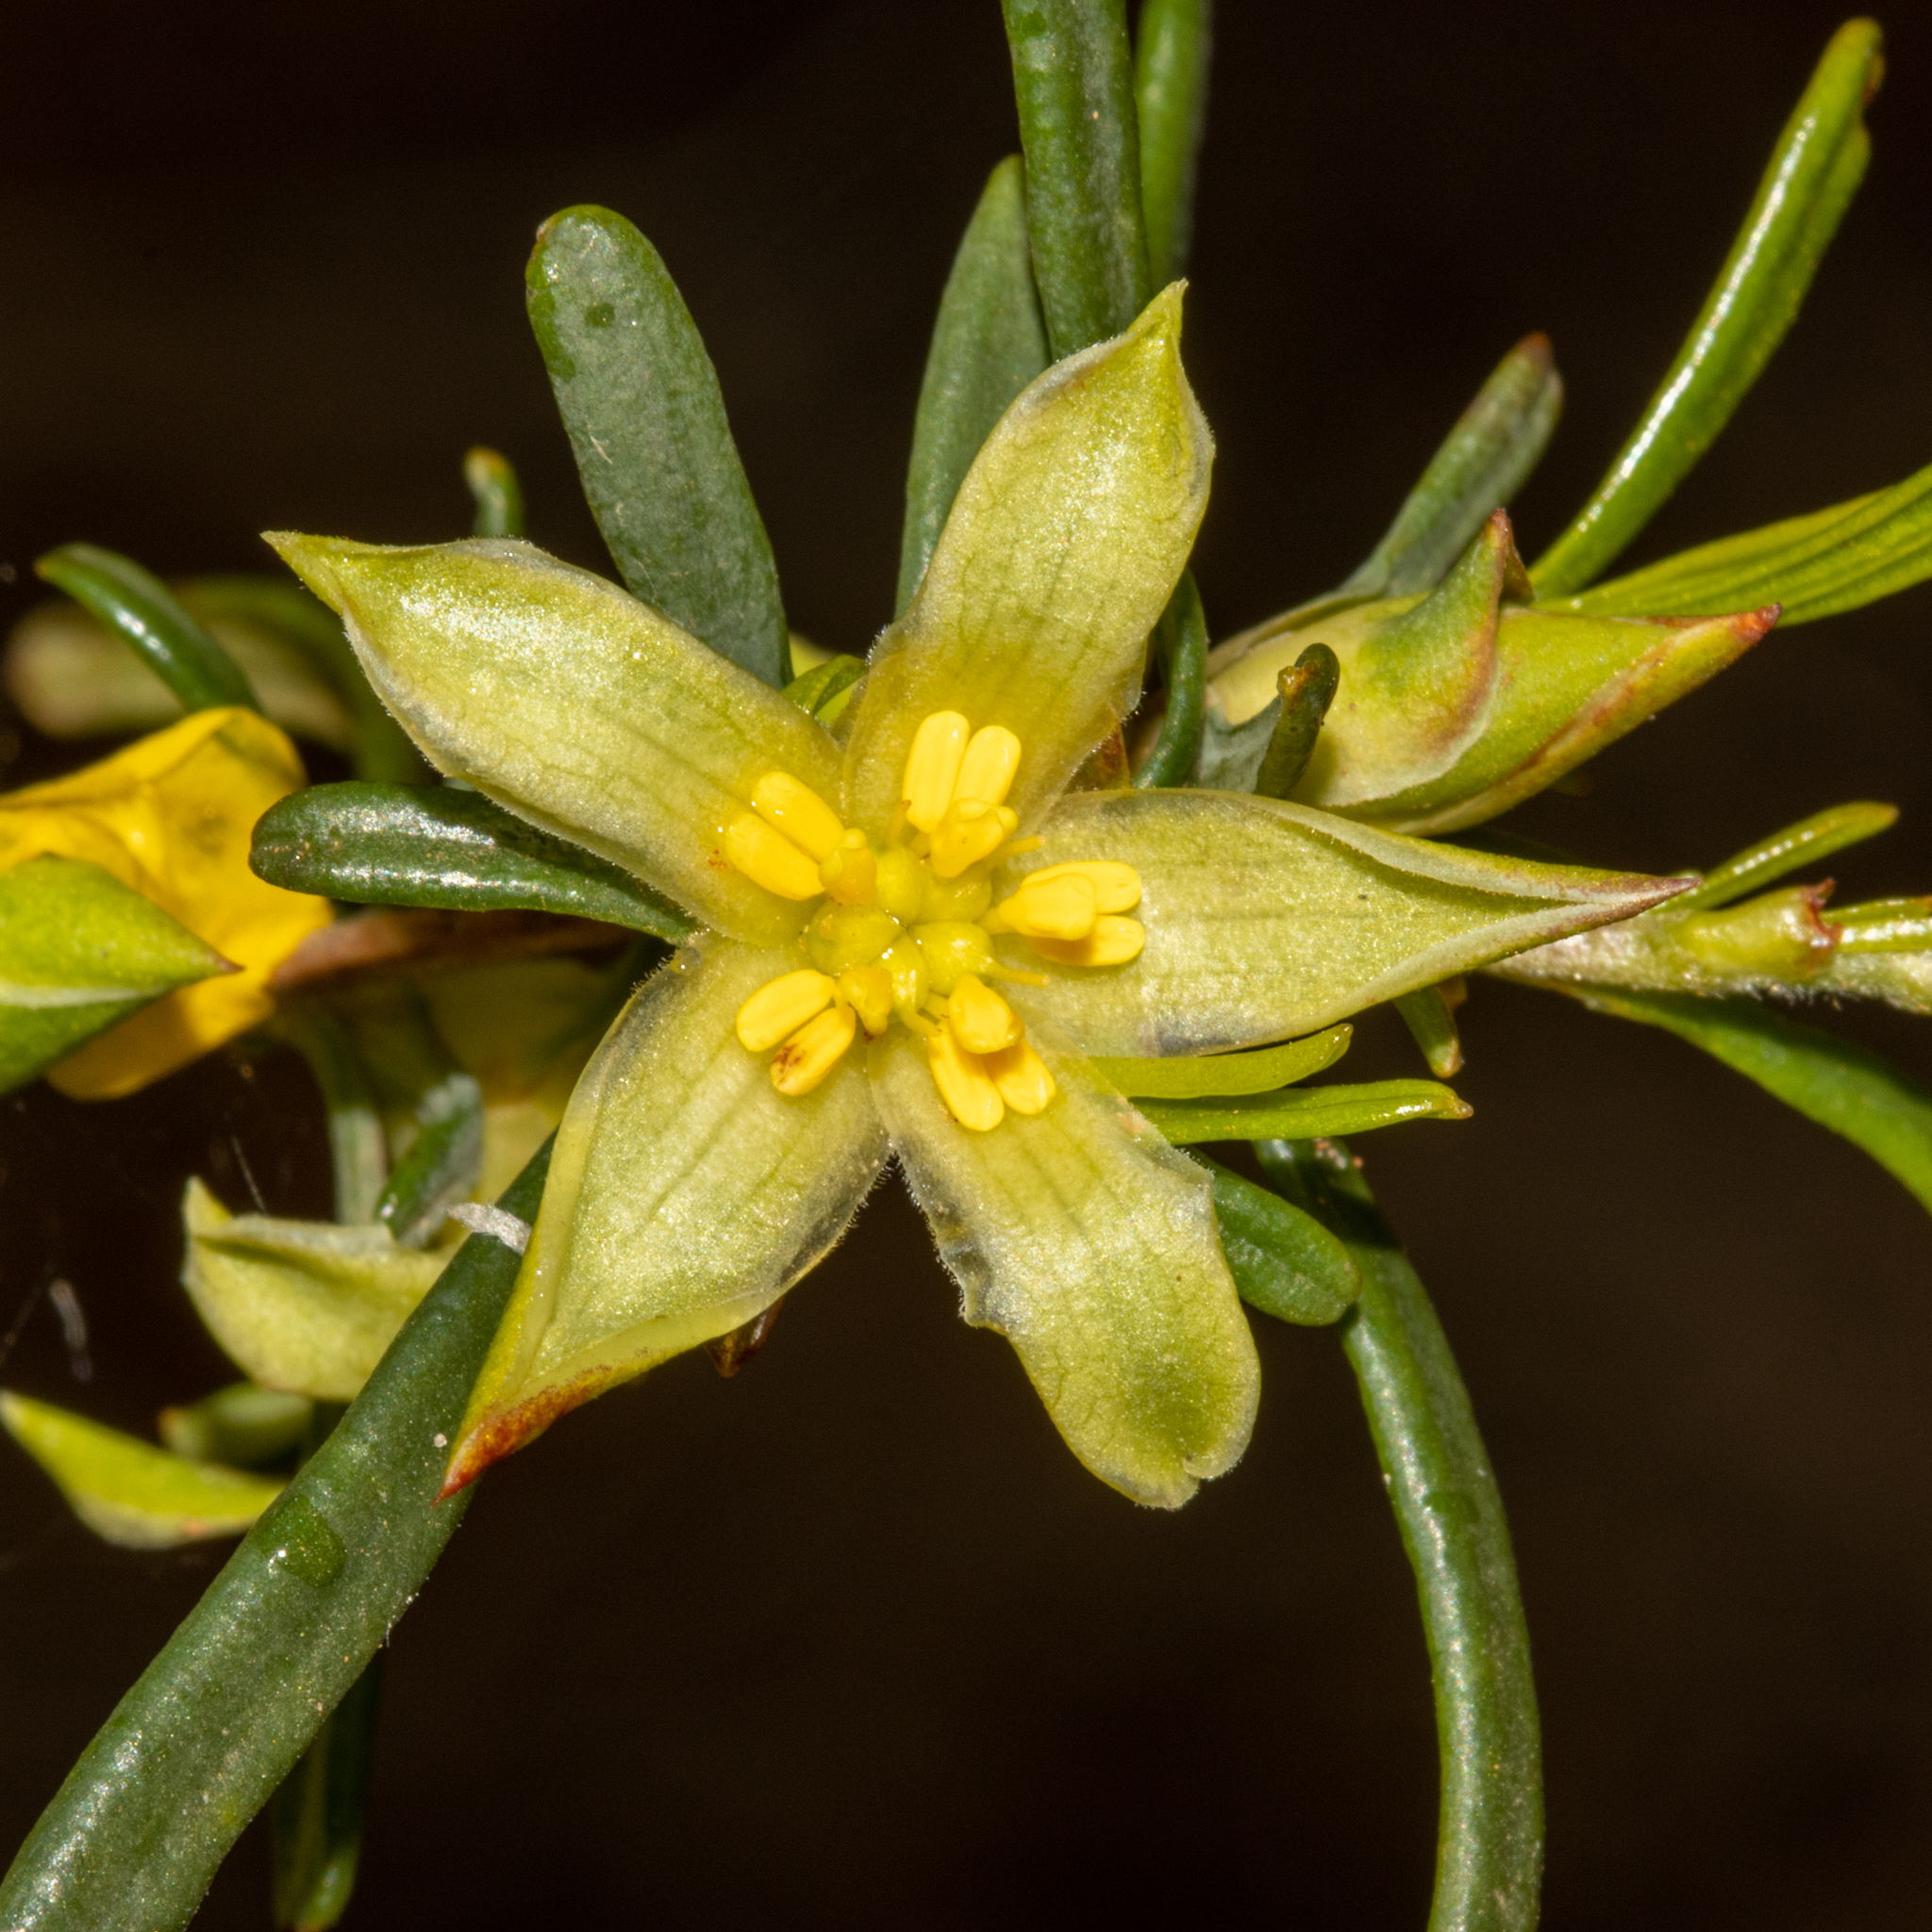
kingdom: Plantae
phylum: Tracheophyta
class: Magnoliopsida
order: Dilleniales
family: Dilleniaceae
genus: Hibbertia
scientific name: Hibbertia glabrisepala
